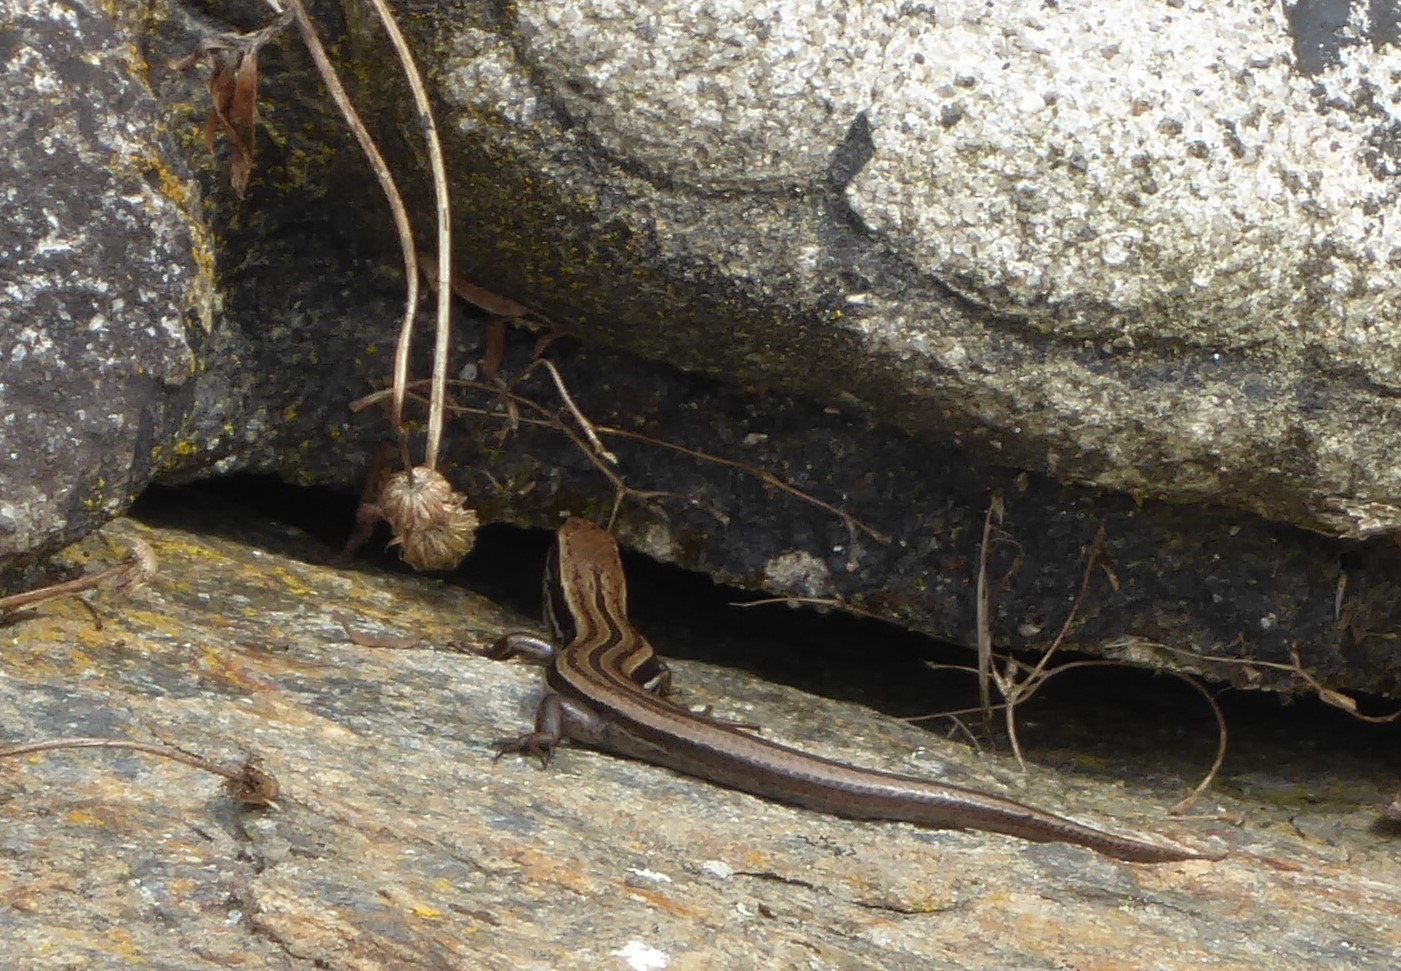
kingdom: Animalia
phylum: Chordata
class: Squamata
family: Scincidae
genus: Oligosoma
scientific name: Oligosoma polychroma
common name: Common new zealand skink
